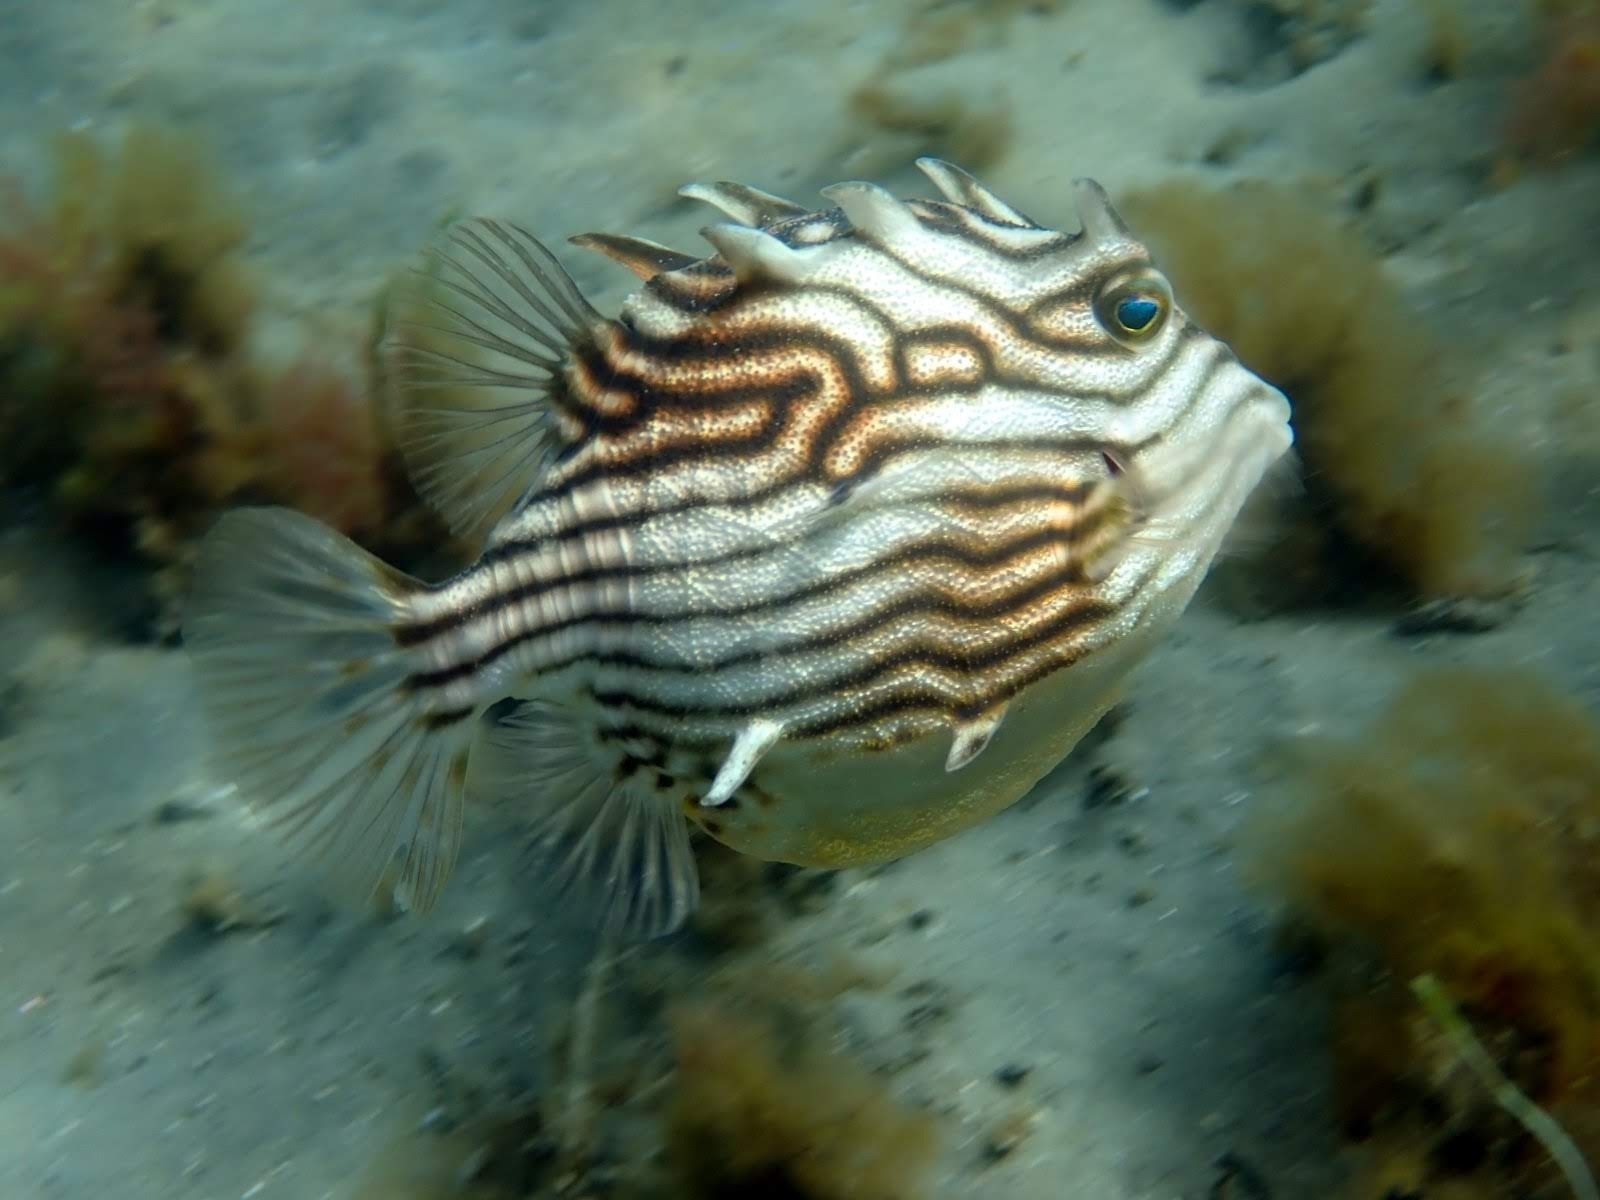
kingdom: Animalia
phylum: Chordata
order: Tetraodontiformes
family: Aracanidae
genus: Aracana
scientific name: Aracana aurita
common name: Shaw’s cowfish
